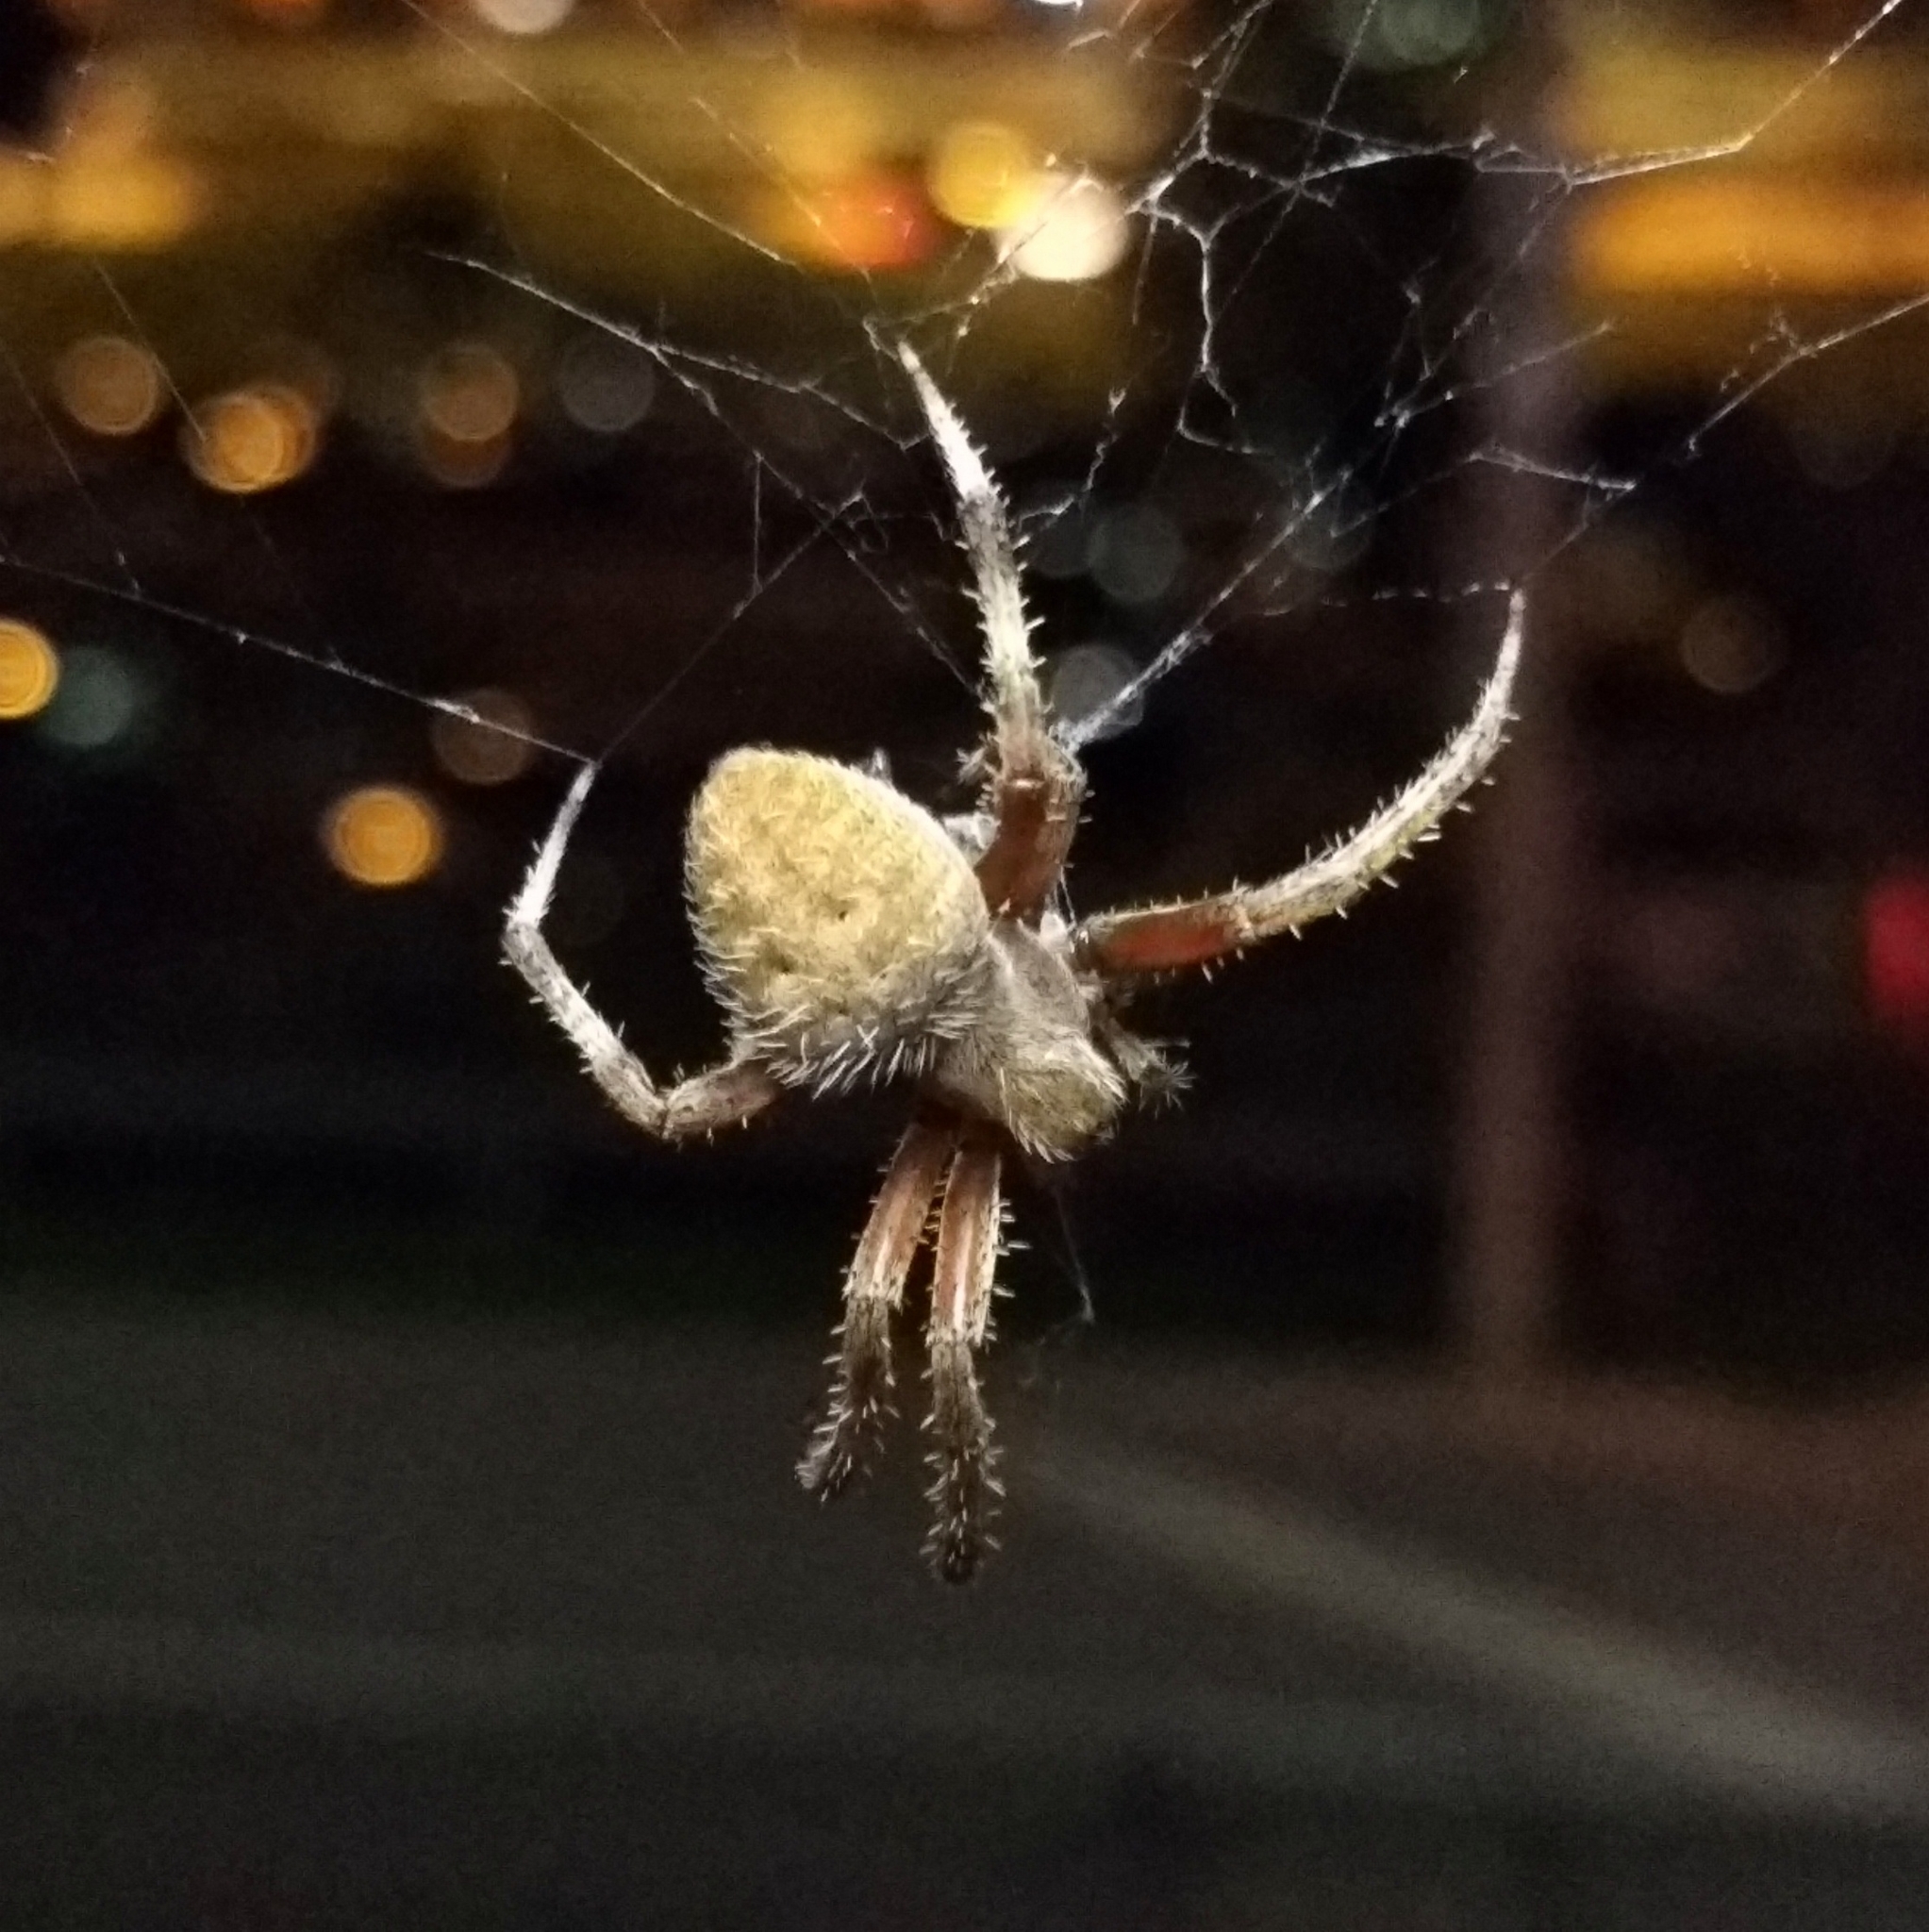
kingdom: Animalia
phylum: Arthropoda
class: Arachnida
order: Araneae
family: Araneidae
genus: Neoscona
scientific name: Neoscona crucifera
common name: Spotted orbweaver
